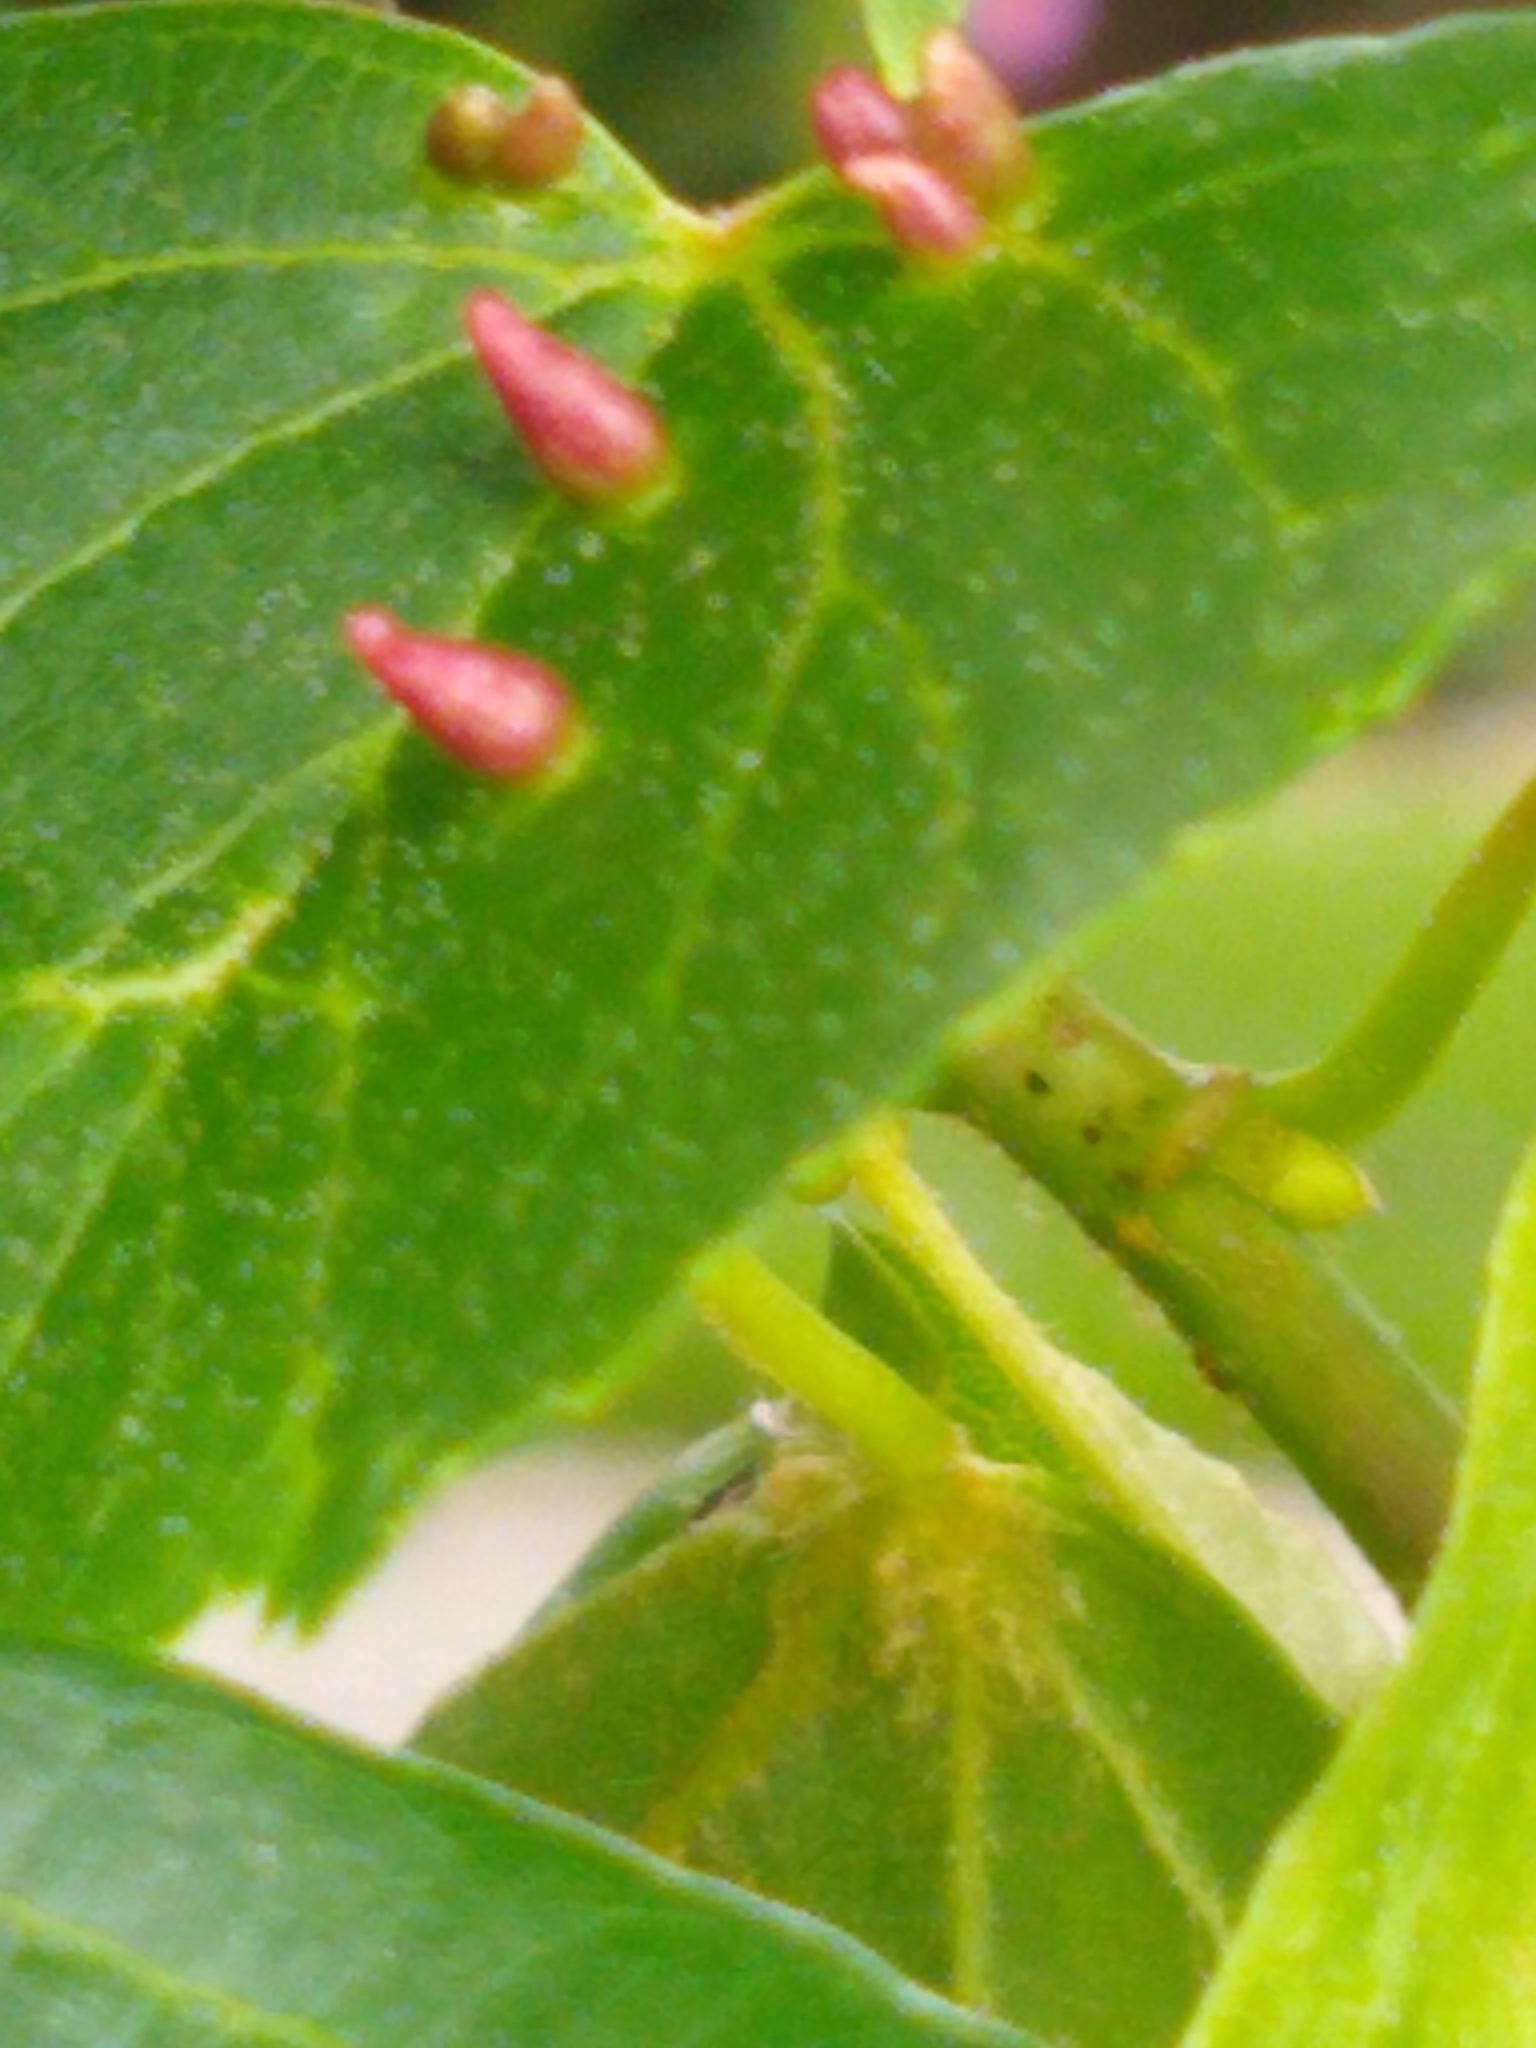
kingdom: Animalia
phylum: Arthropoda
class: Arachnida
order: Trombidiformes
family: Eriophyidae
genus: Eriophyes
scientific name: Eriophyes tiliae
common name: Red nail gall mite
